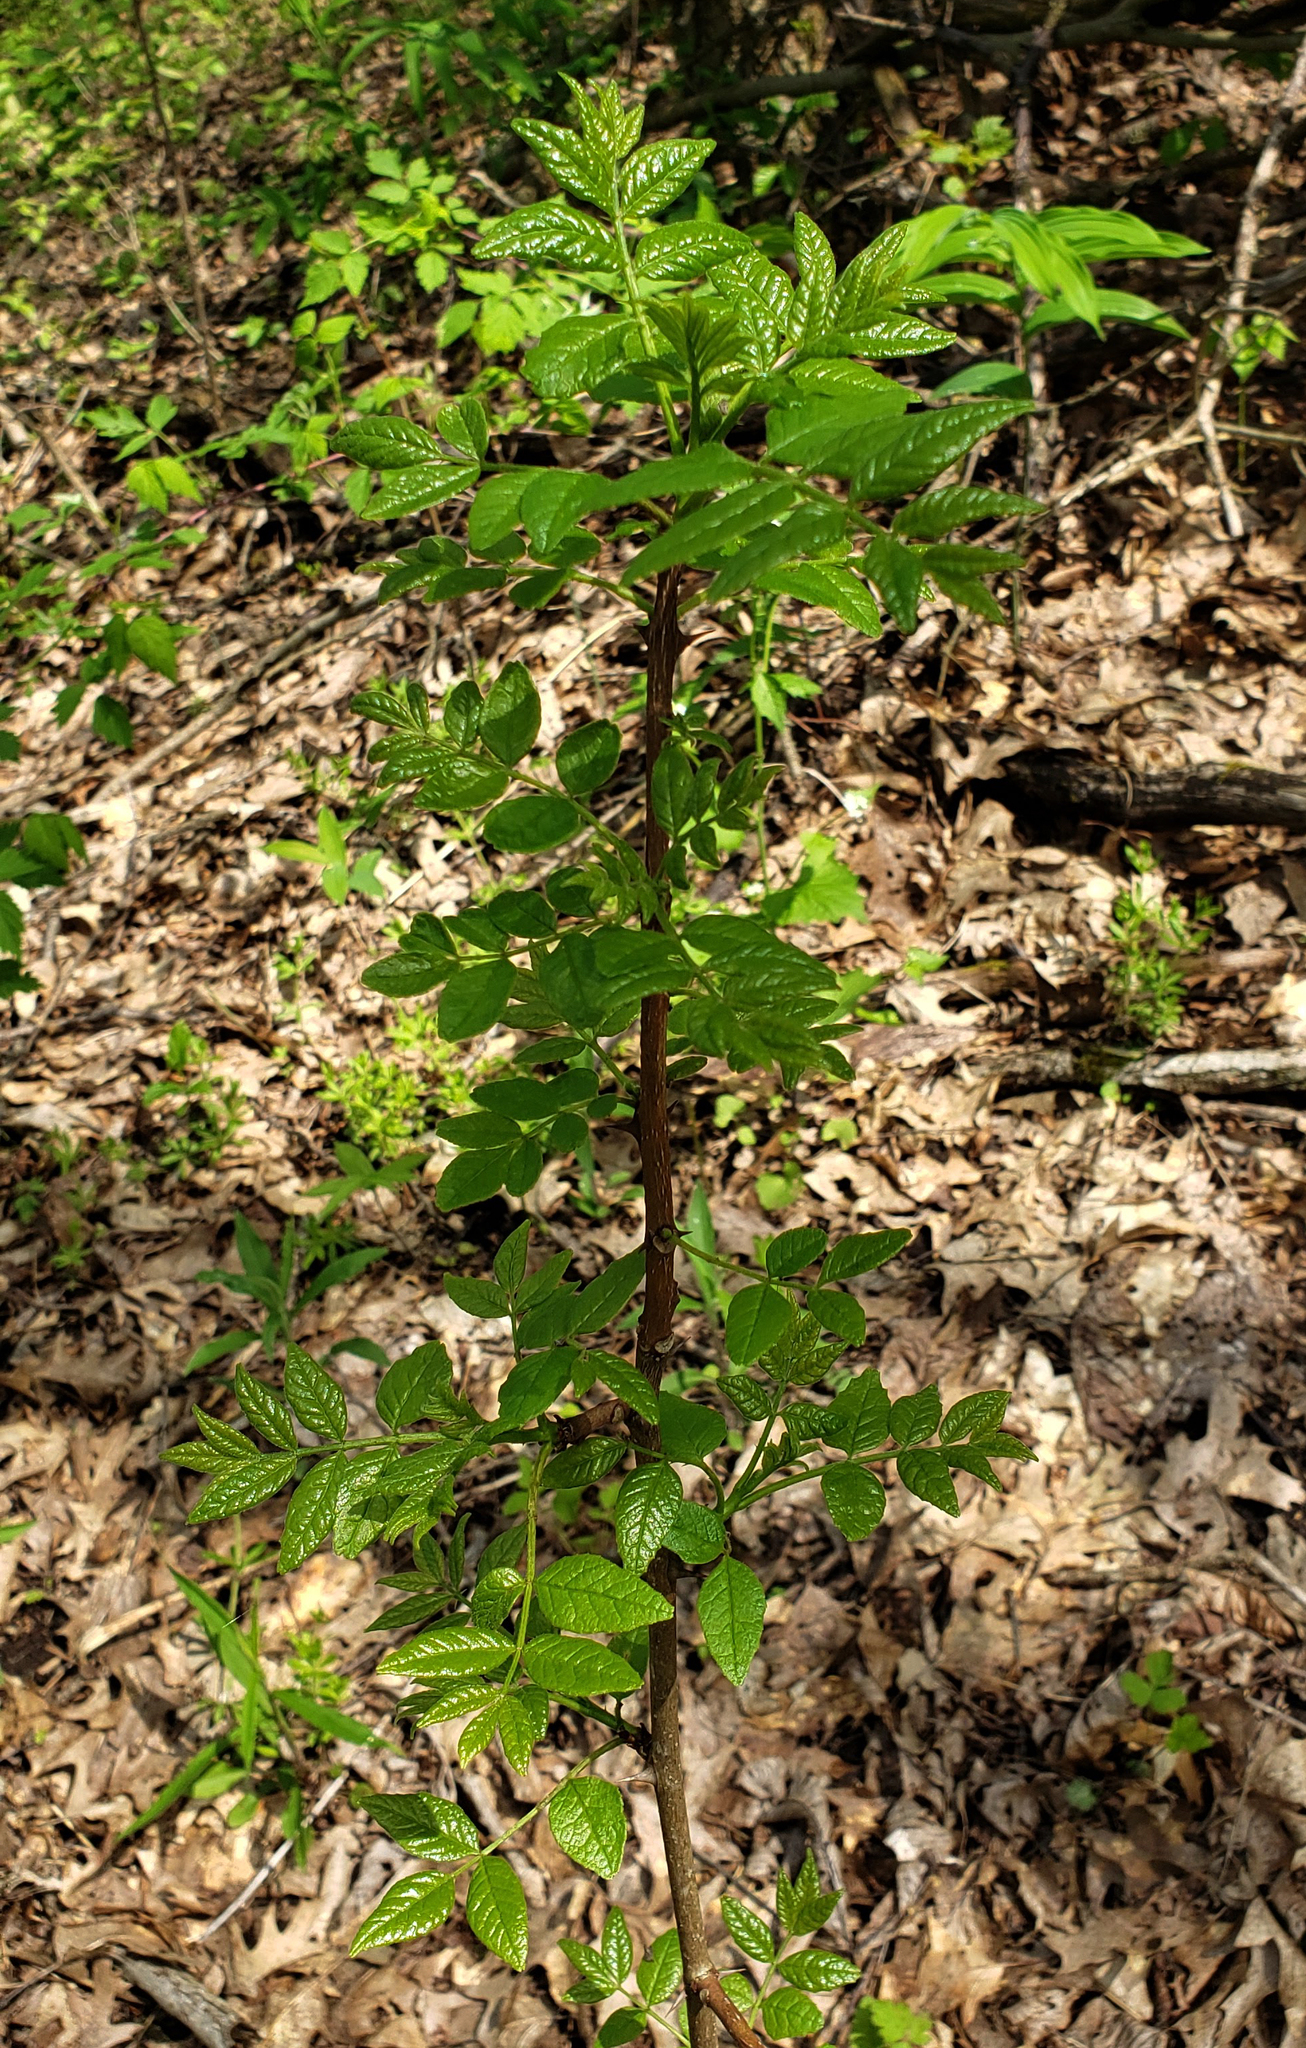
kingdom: Plantae
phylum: Tracheophyta
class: Magnoliopsida
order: Sapindales
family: Rutaceae
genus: Zanthoxylum
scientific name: Zanthoxylum americanum
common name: Northern prickly-ash
